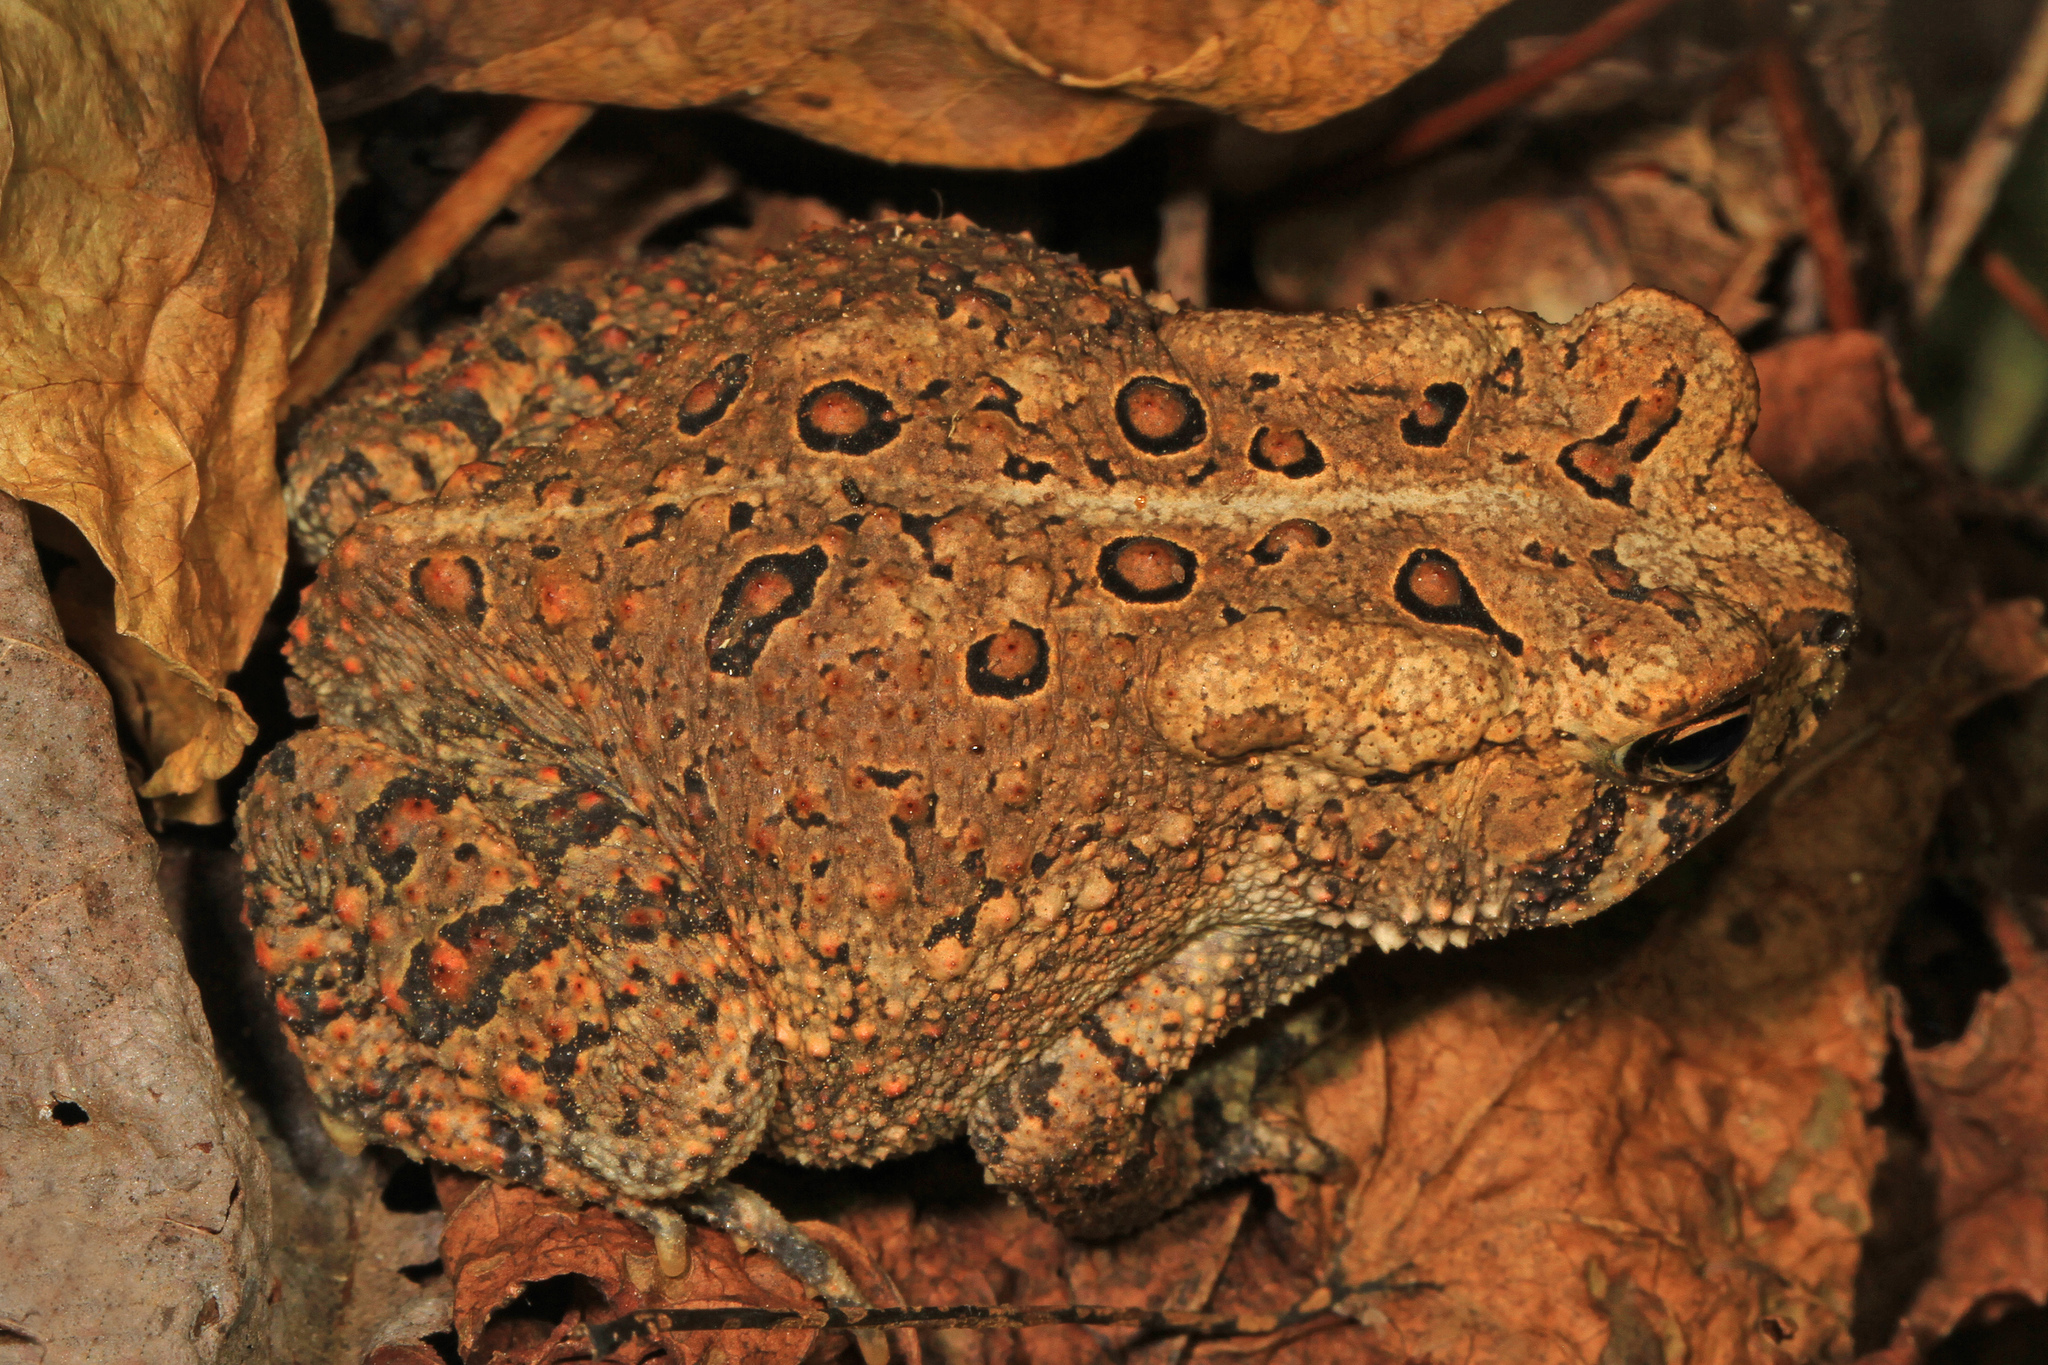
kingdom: Animalia
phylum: Chordata
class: Amphibia
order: Anura
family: Bufonidae
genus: Anaxyrus
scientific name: Anaxyrus americanus
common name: American toad
